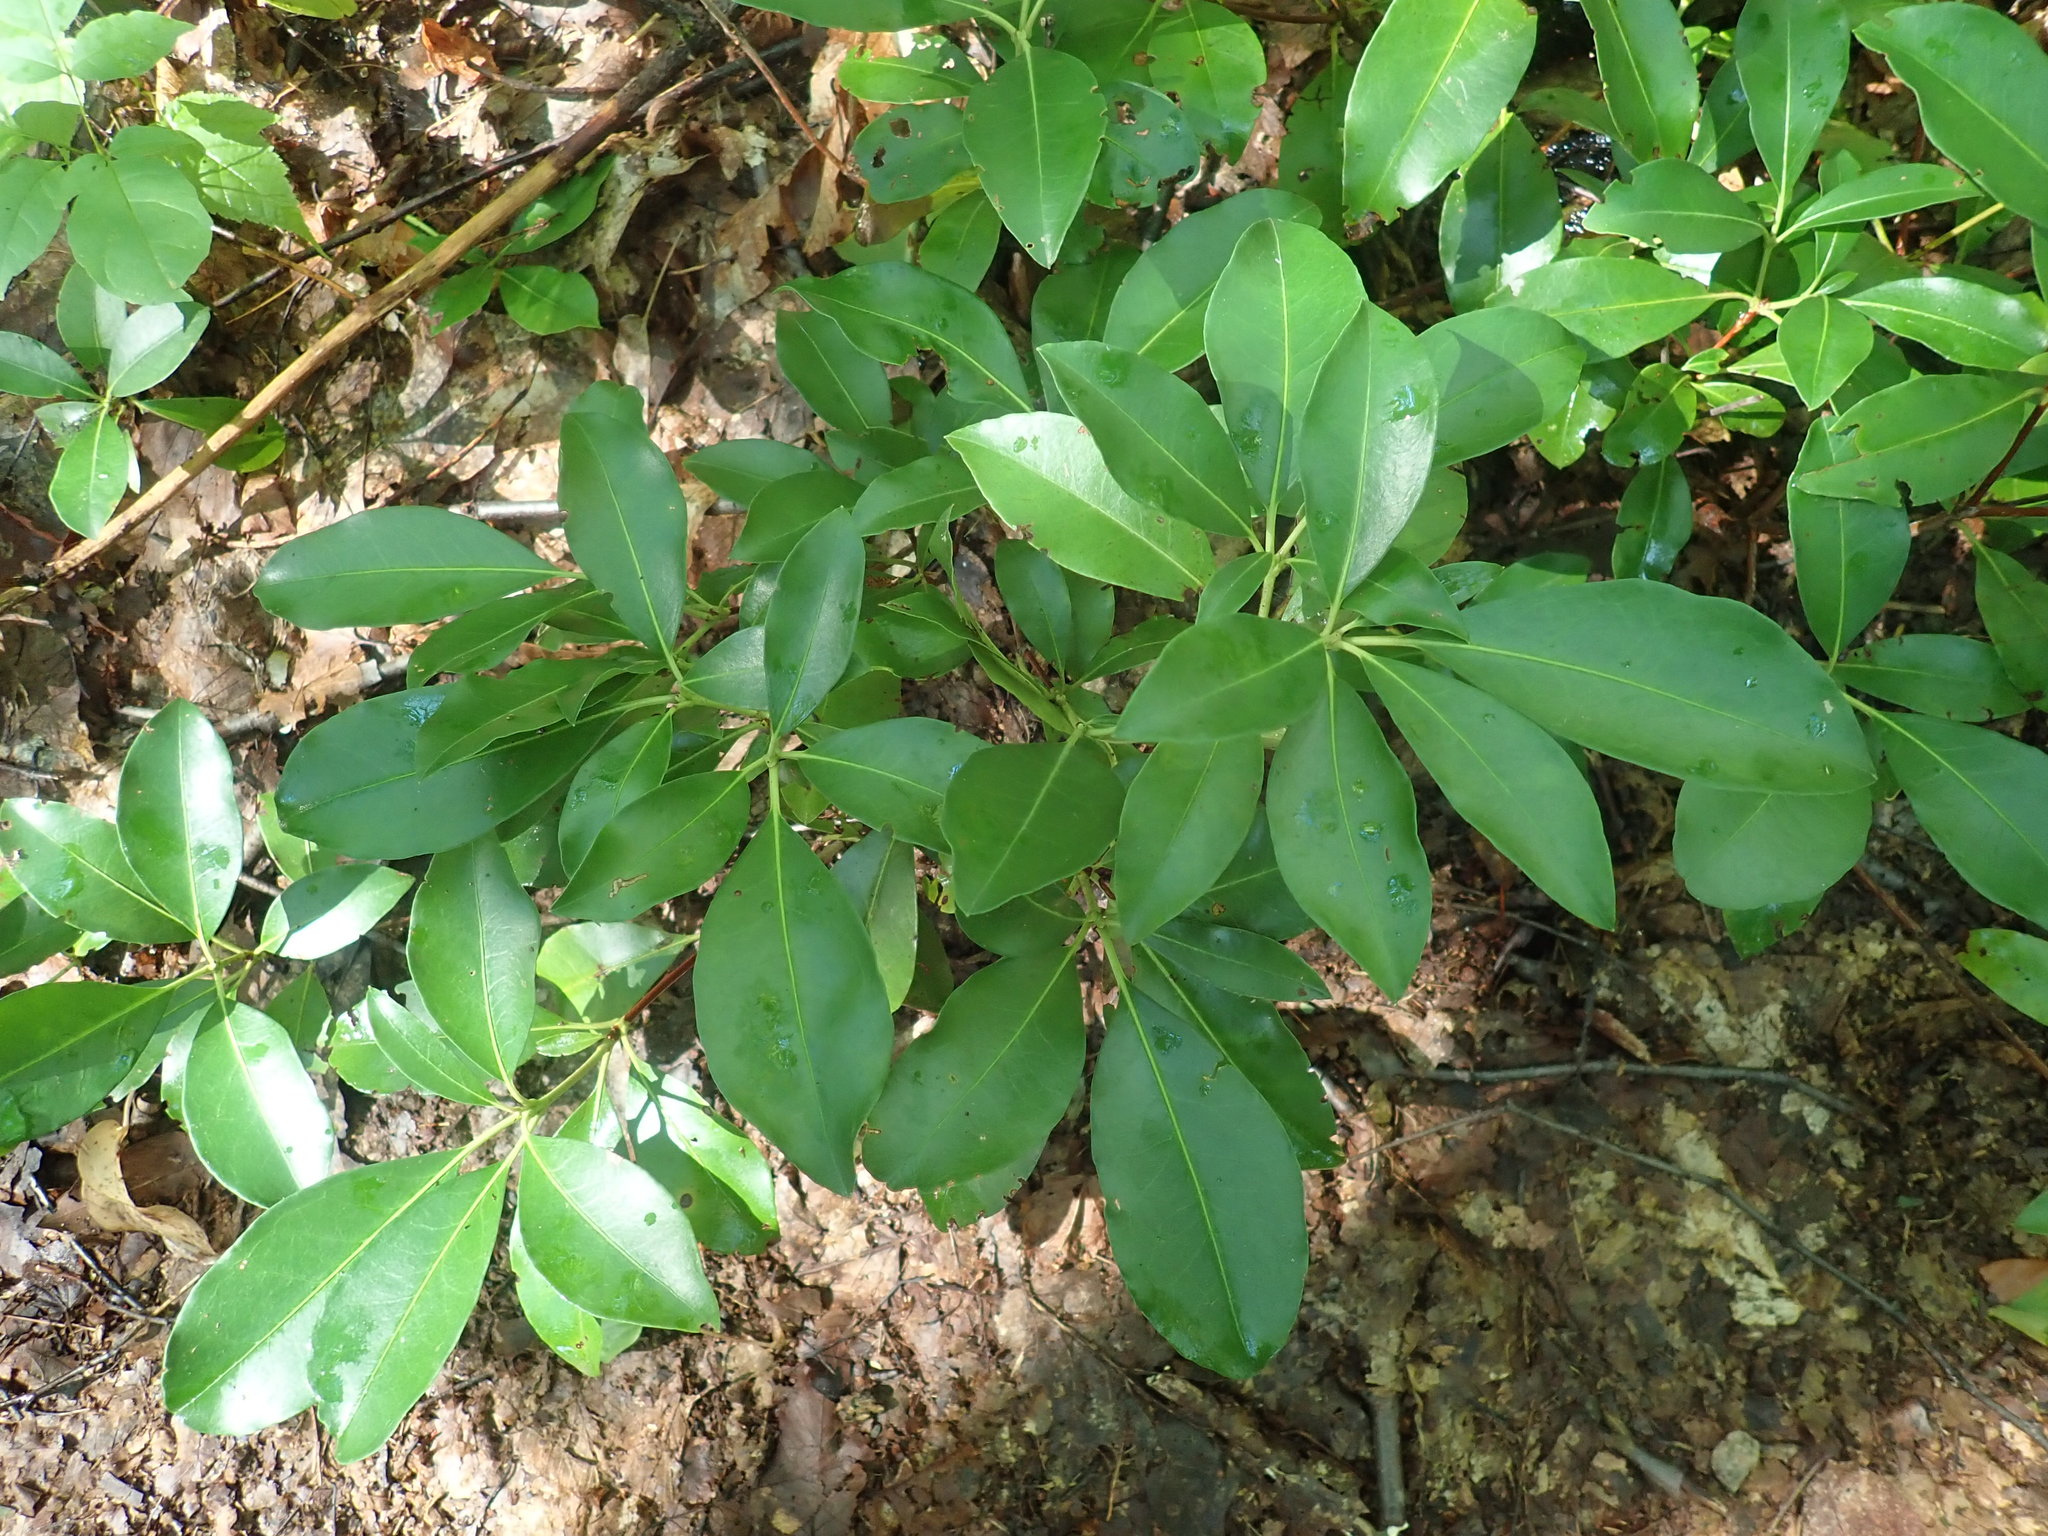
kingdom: Plantae
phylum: Tracheophyta
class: Magnoliopsida
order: Ericales
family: Ericaceae
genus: Kalmia
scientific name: Kalmia latifolia
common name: Mountain-laurel
